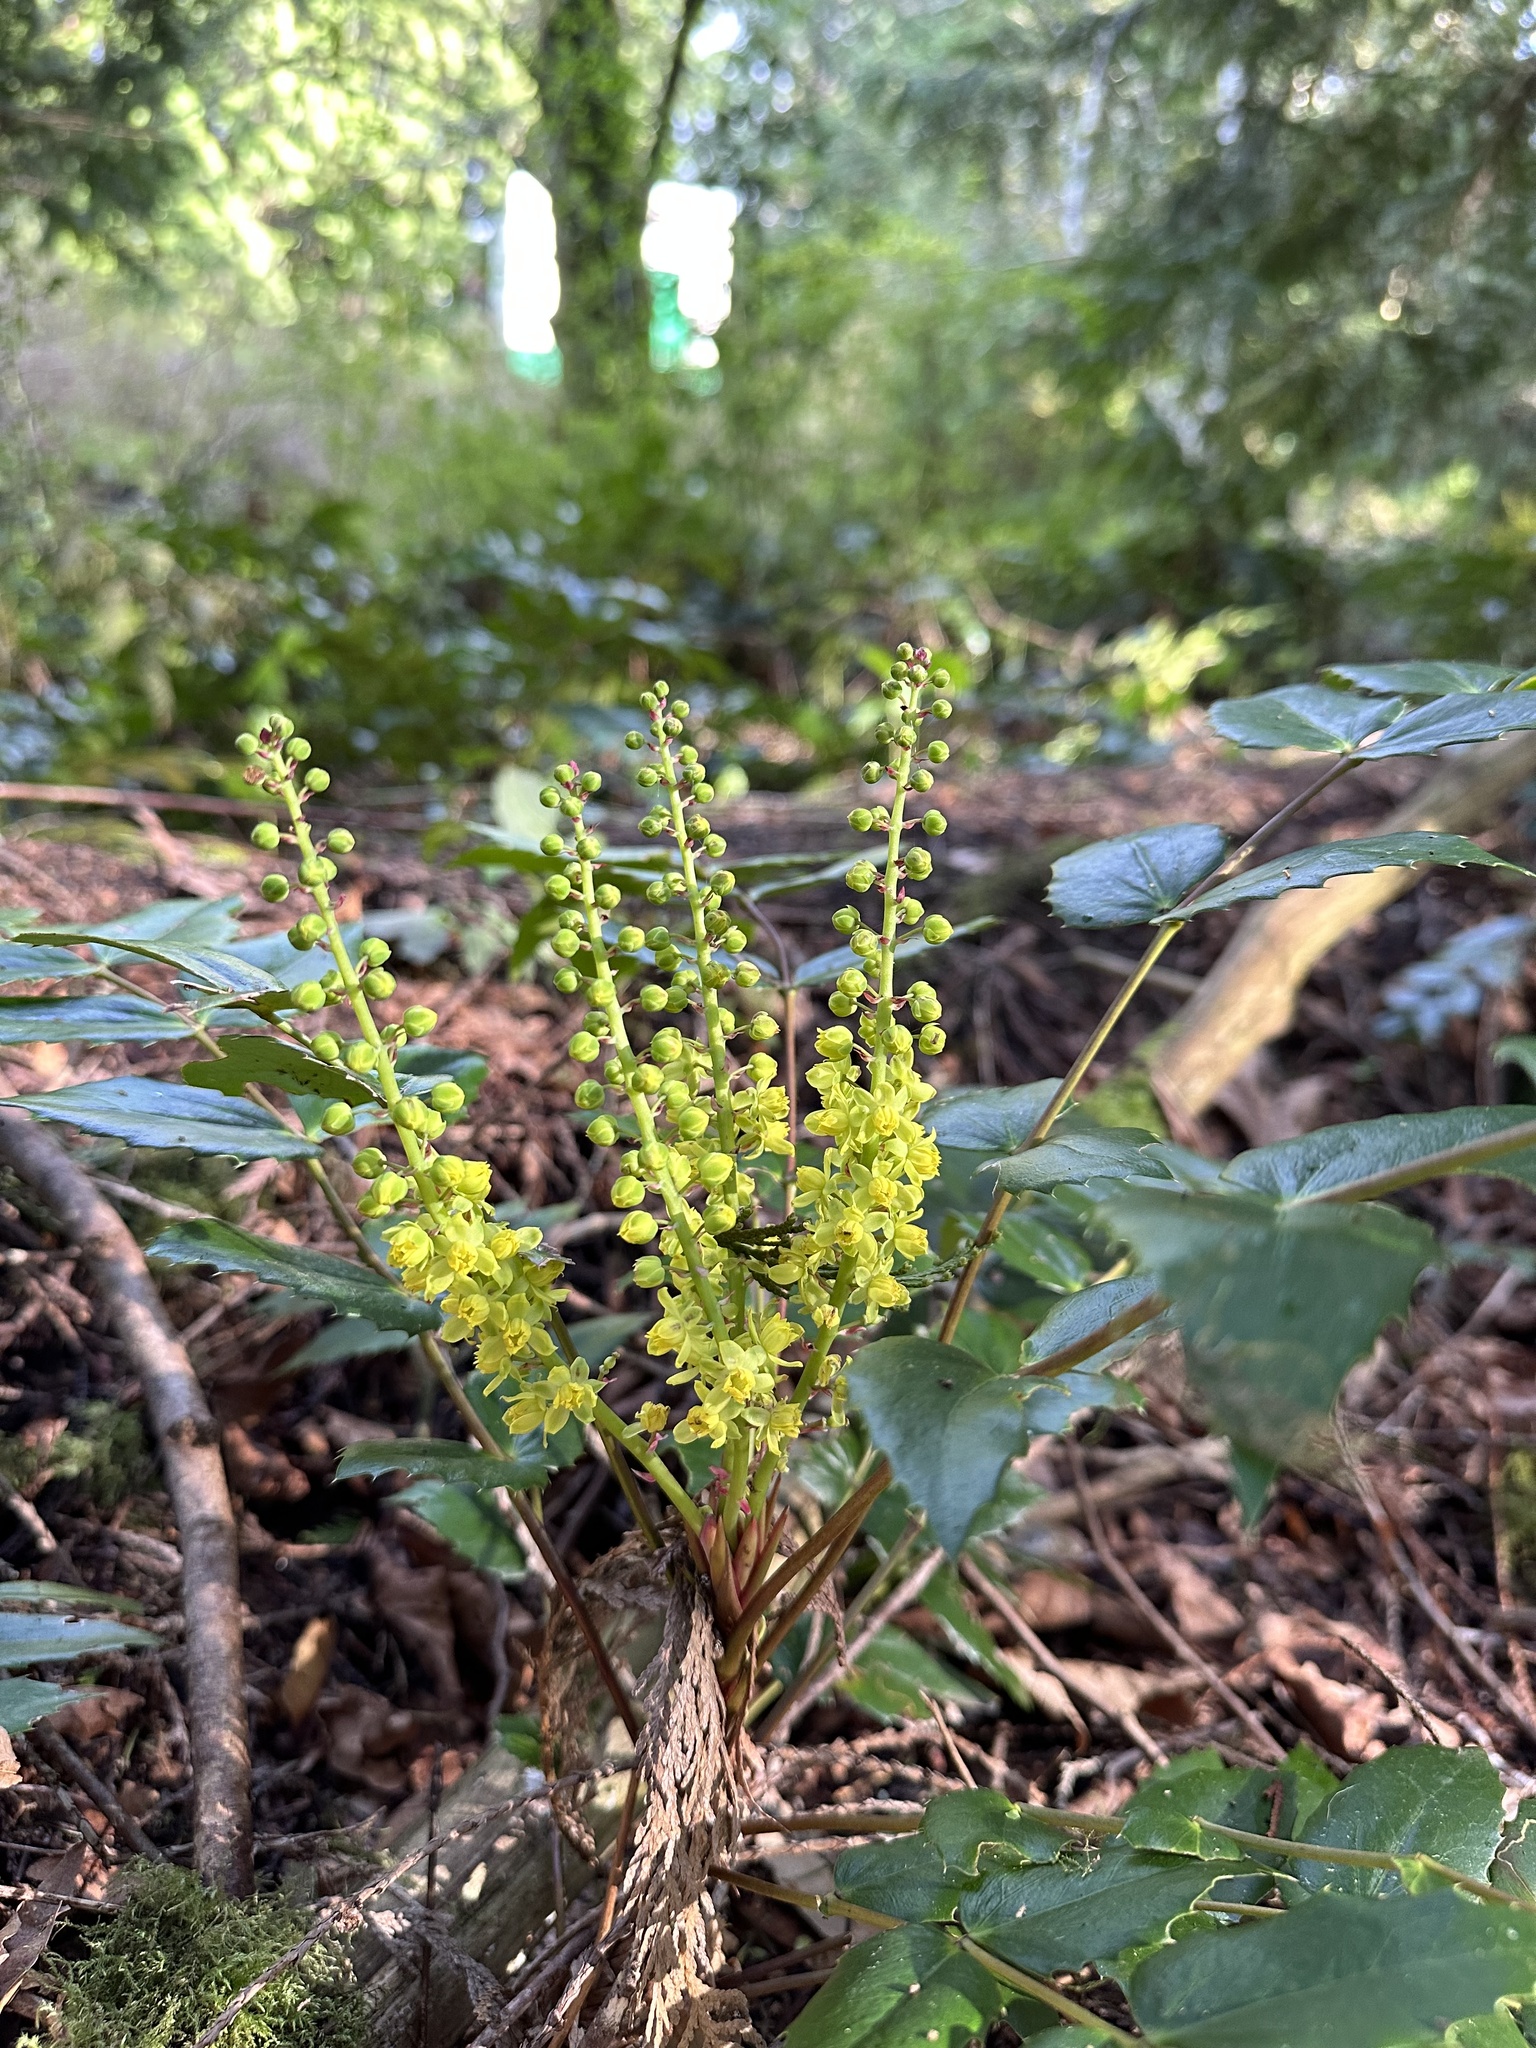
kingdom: Plantae
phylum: Tracheophyta
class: Magnoliopsida
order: Ranunculales
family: Berberidaceae
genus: Mahonia
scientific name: Mahonia nervosa
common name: Cascade oregon-grape
